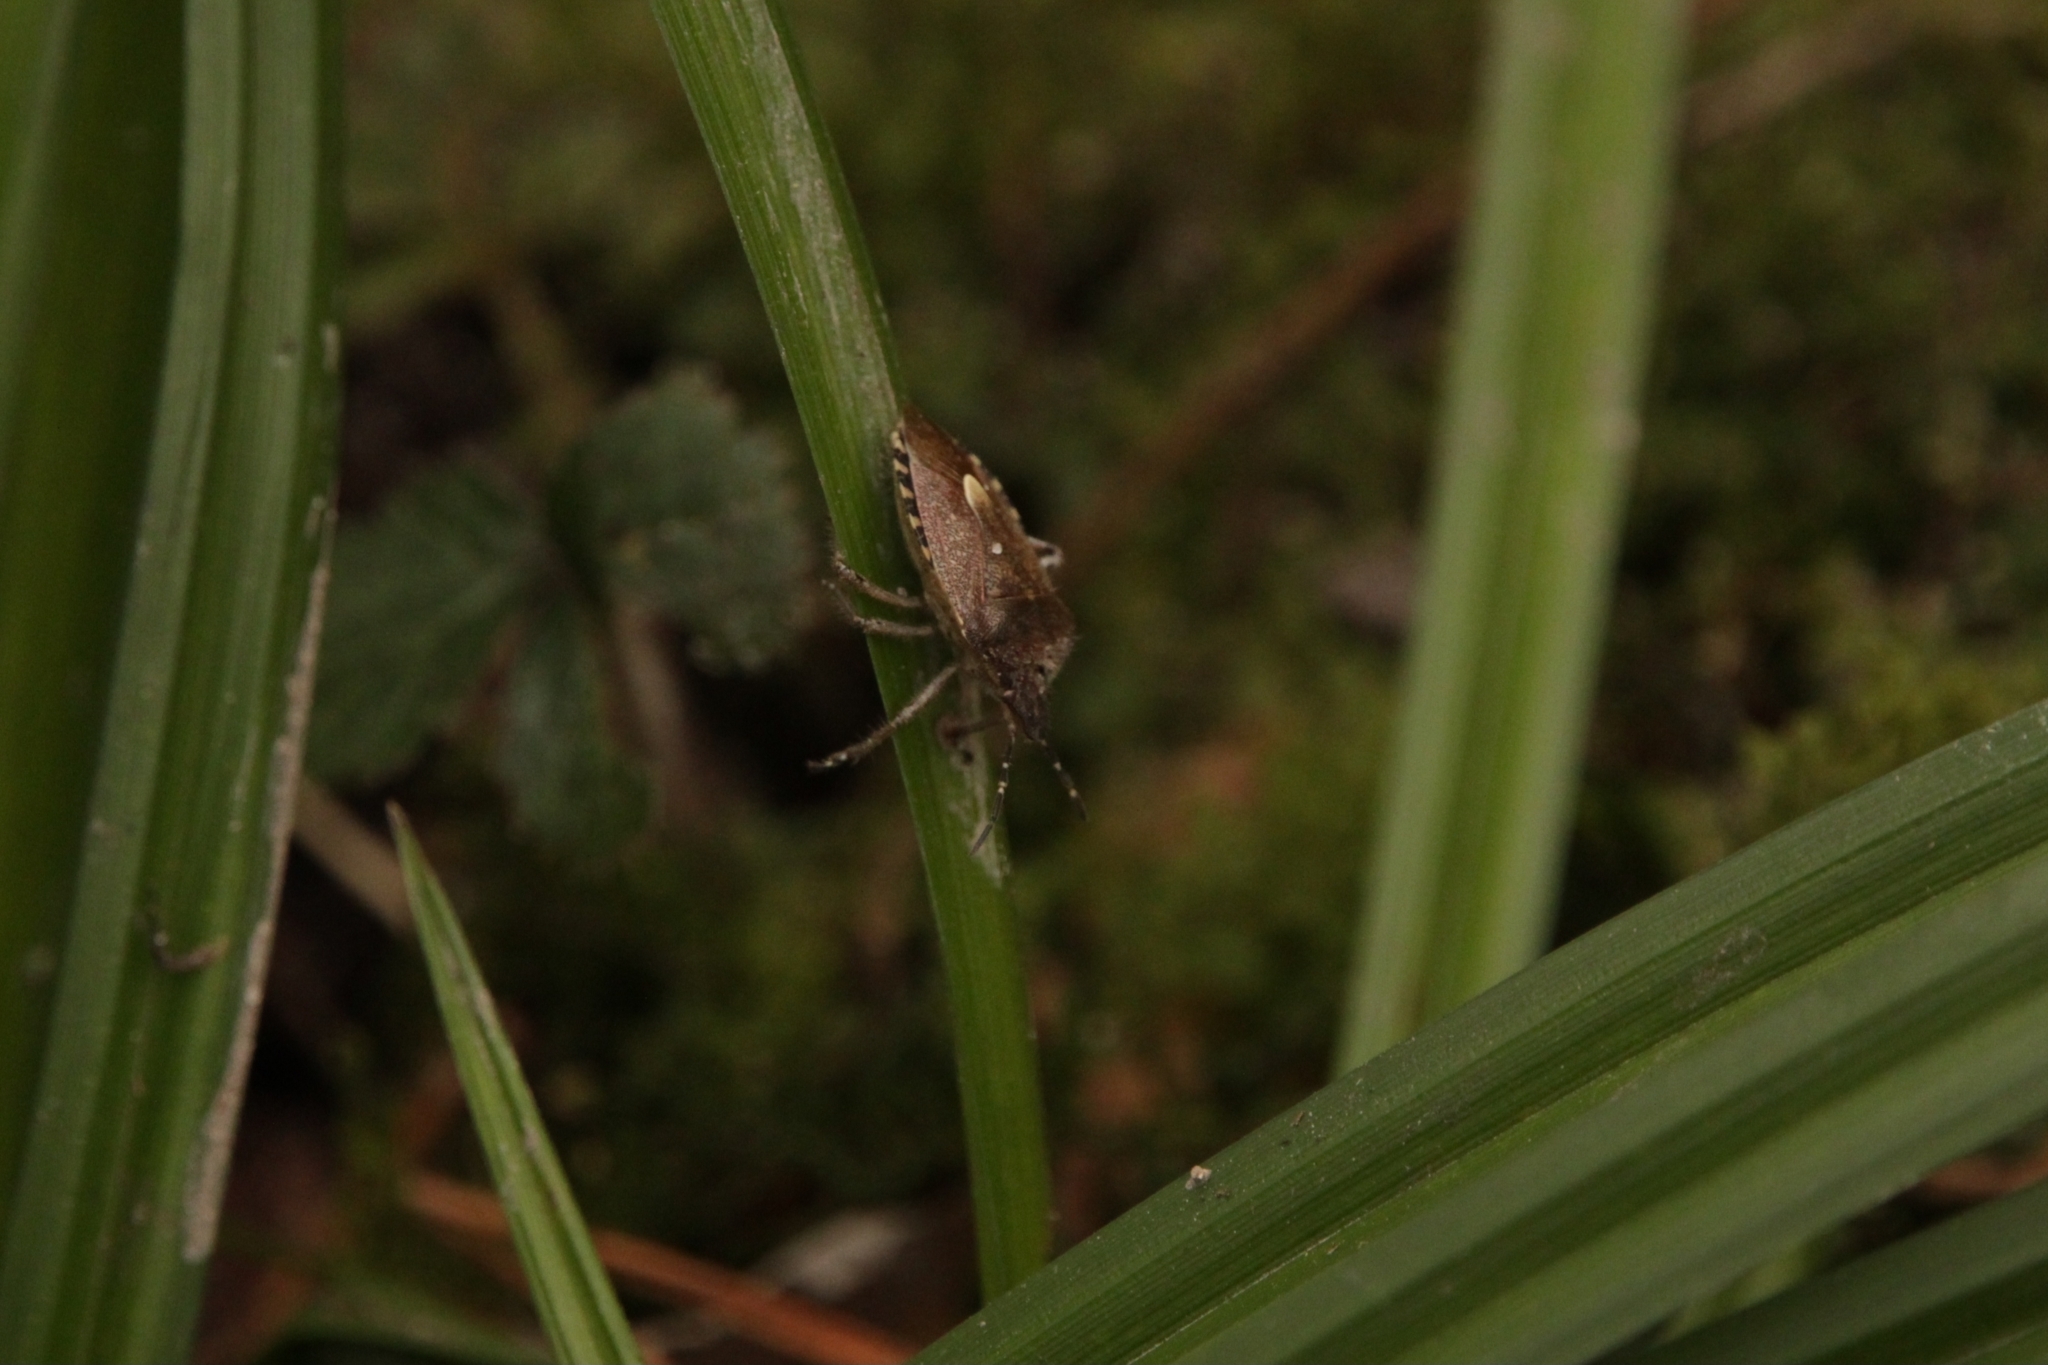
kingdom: Animalia
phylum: Arthropoda
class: Insecta
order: Hemiptera
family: Pentatomidae
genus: Dolycoris
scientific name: Dolycoris baccarum
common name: Sloe bug
